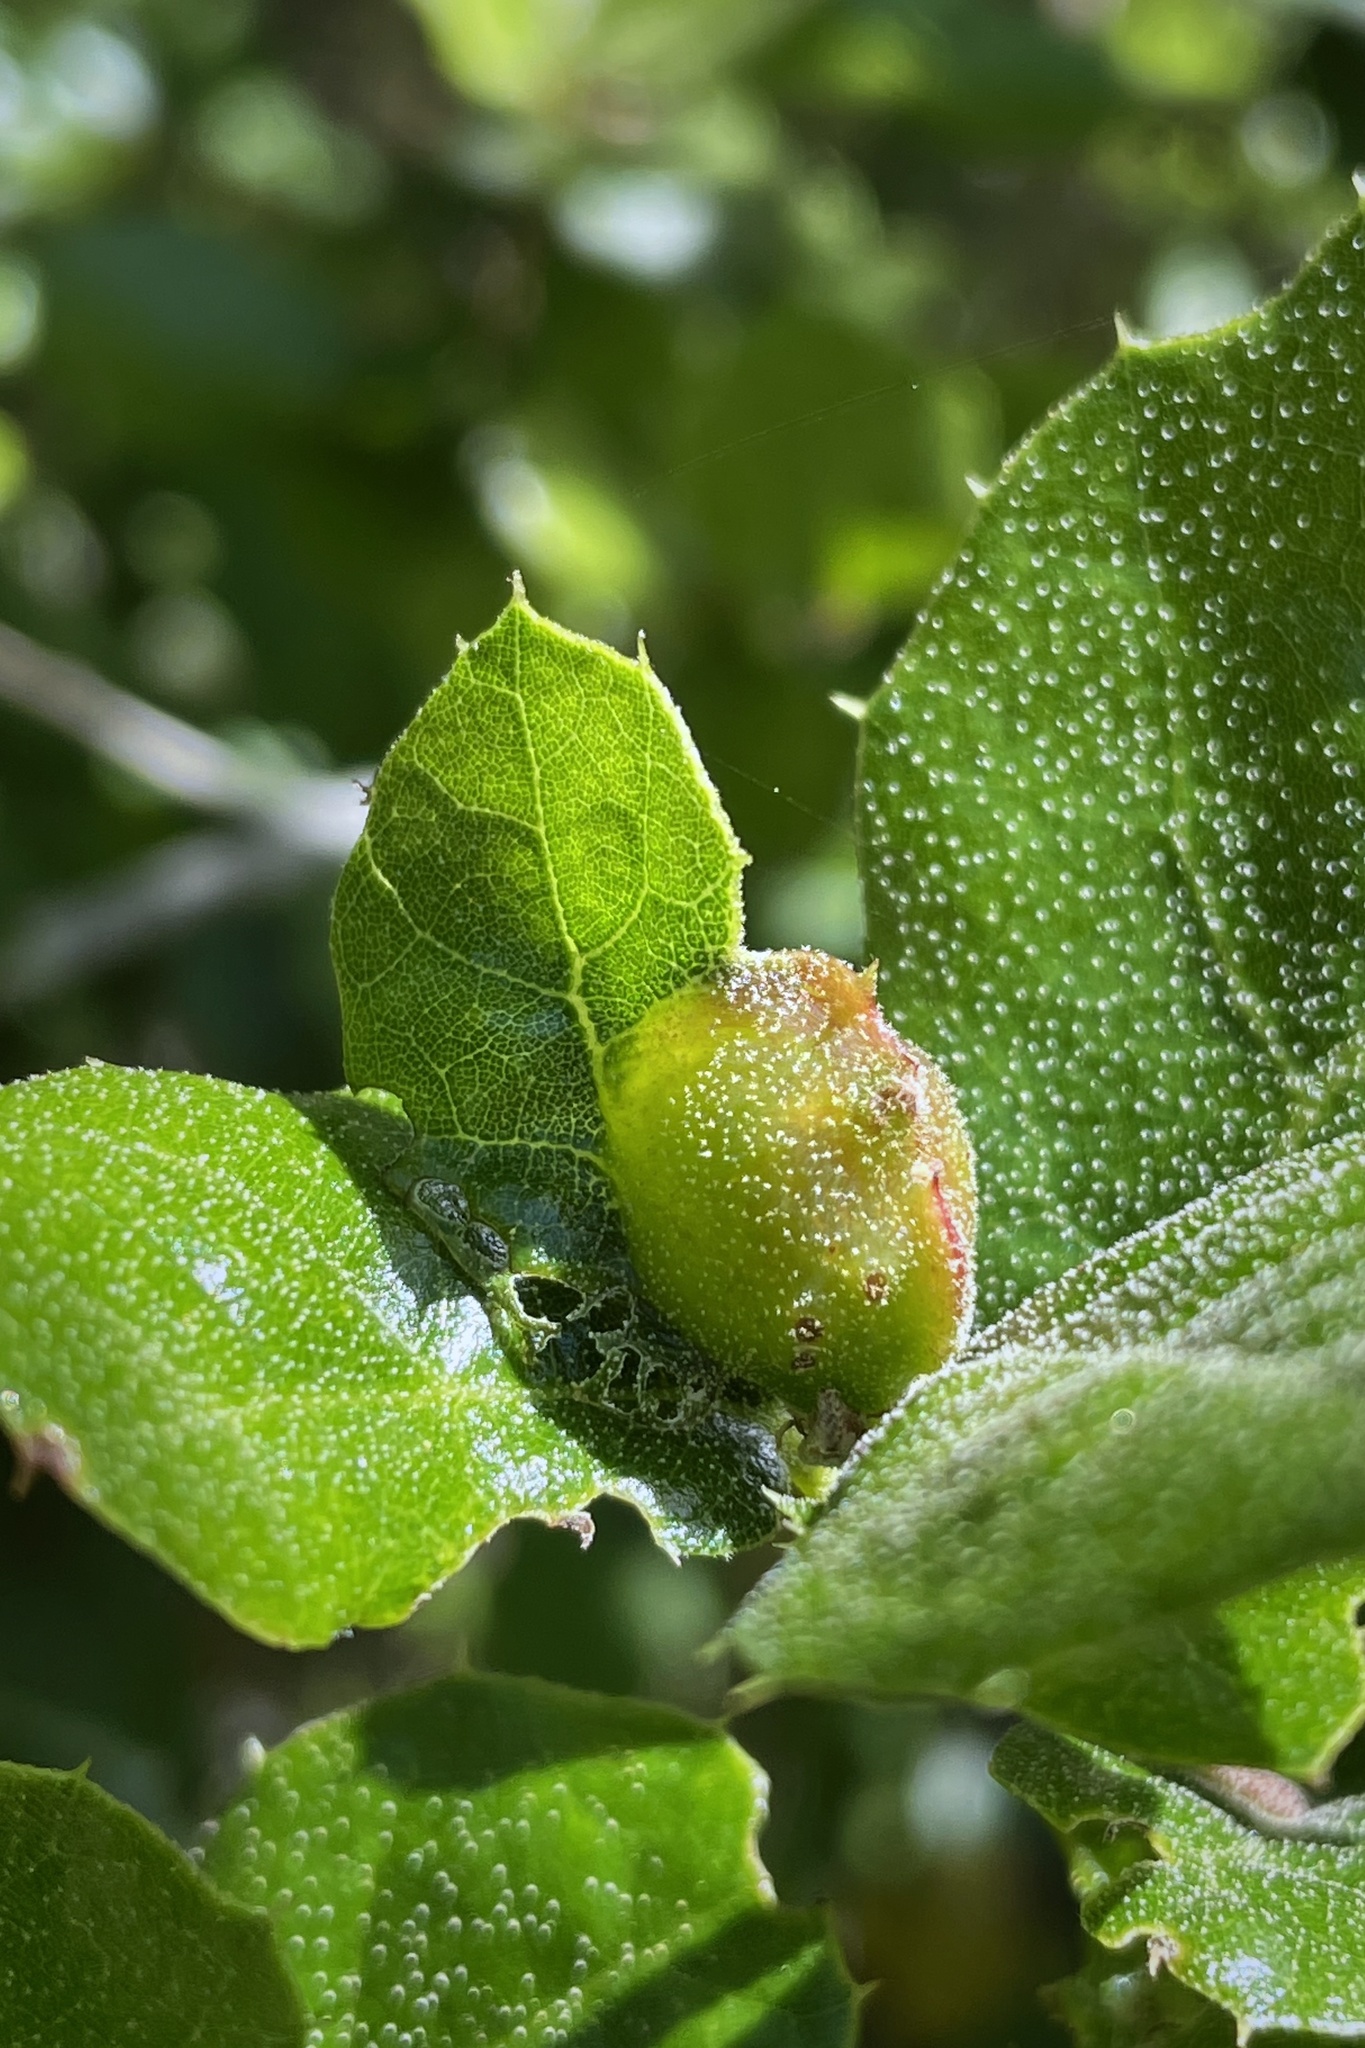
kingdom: Animalia
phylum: Arthropoda
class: Insecta
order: Hymenoptera
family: Cynipidae
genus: Callirhytis
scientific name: Callirhytis
